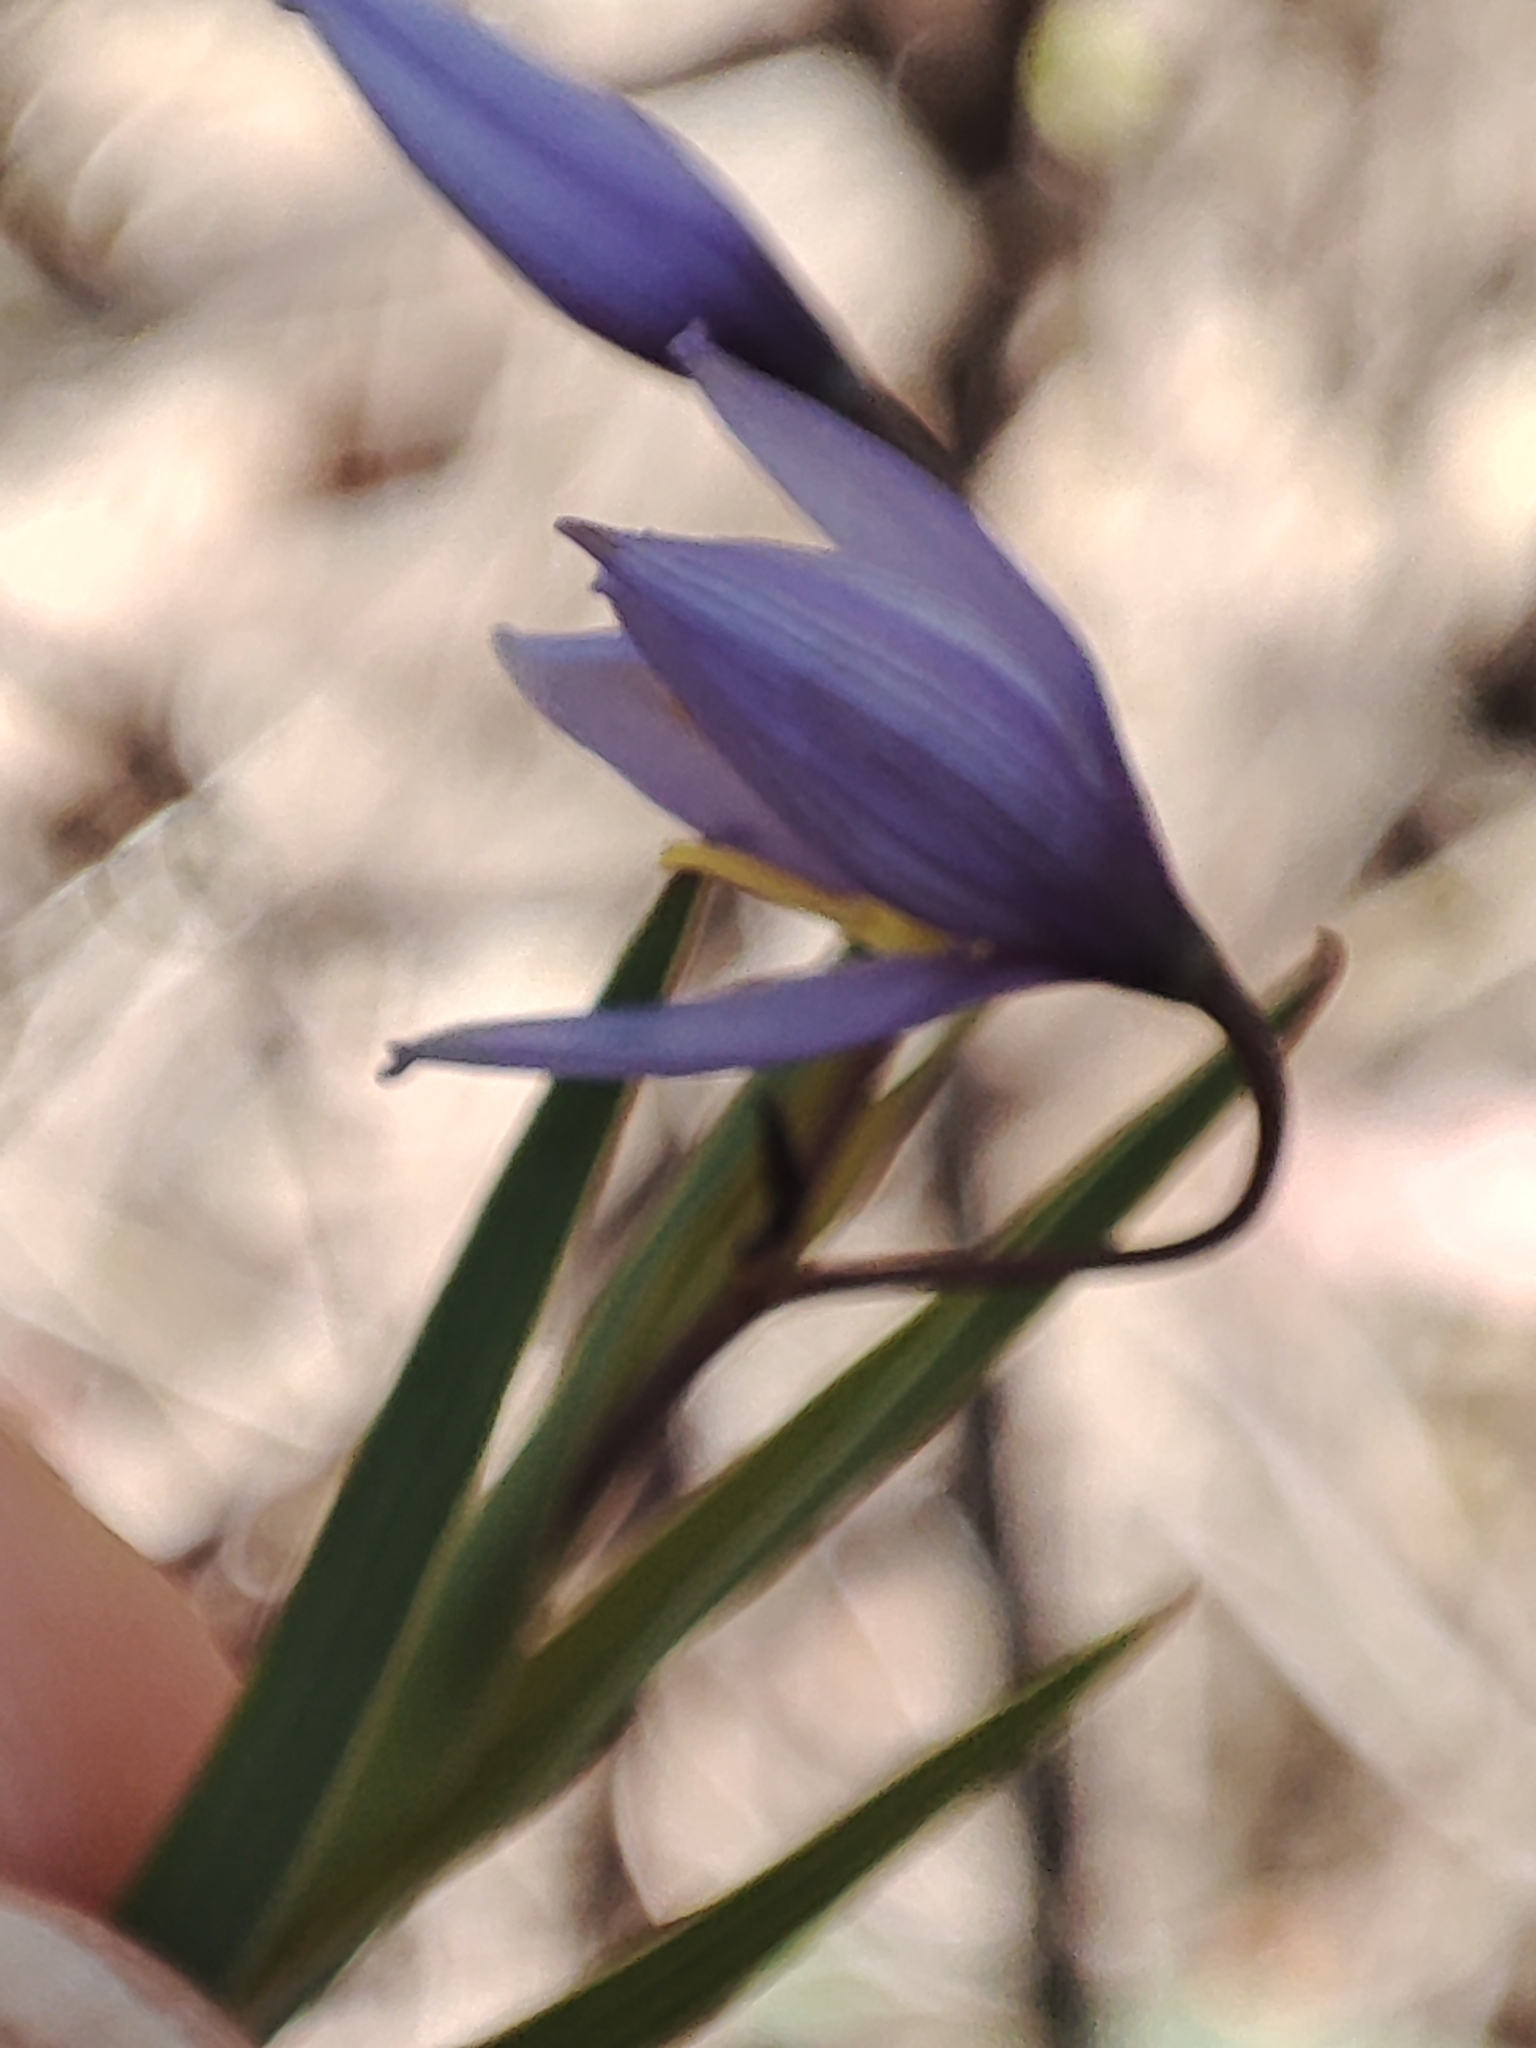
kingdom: Plantae
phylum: Tracheophyta
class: Liliopsida
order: Asparagales
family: Asphodelaceae
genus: Stypandra
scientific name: Stypandra glauca
